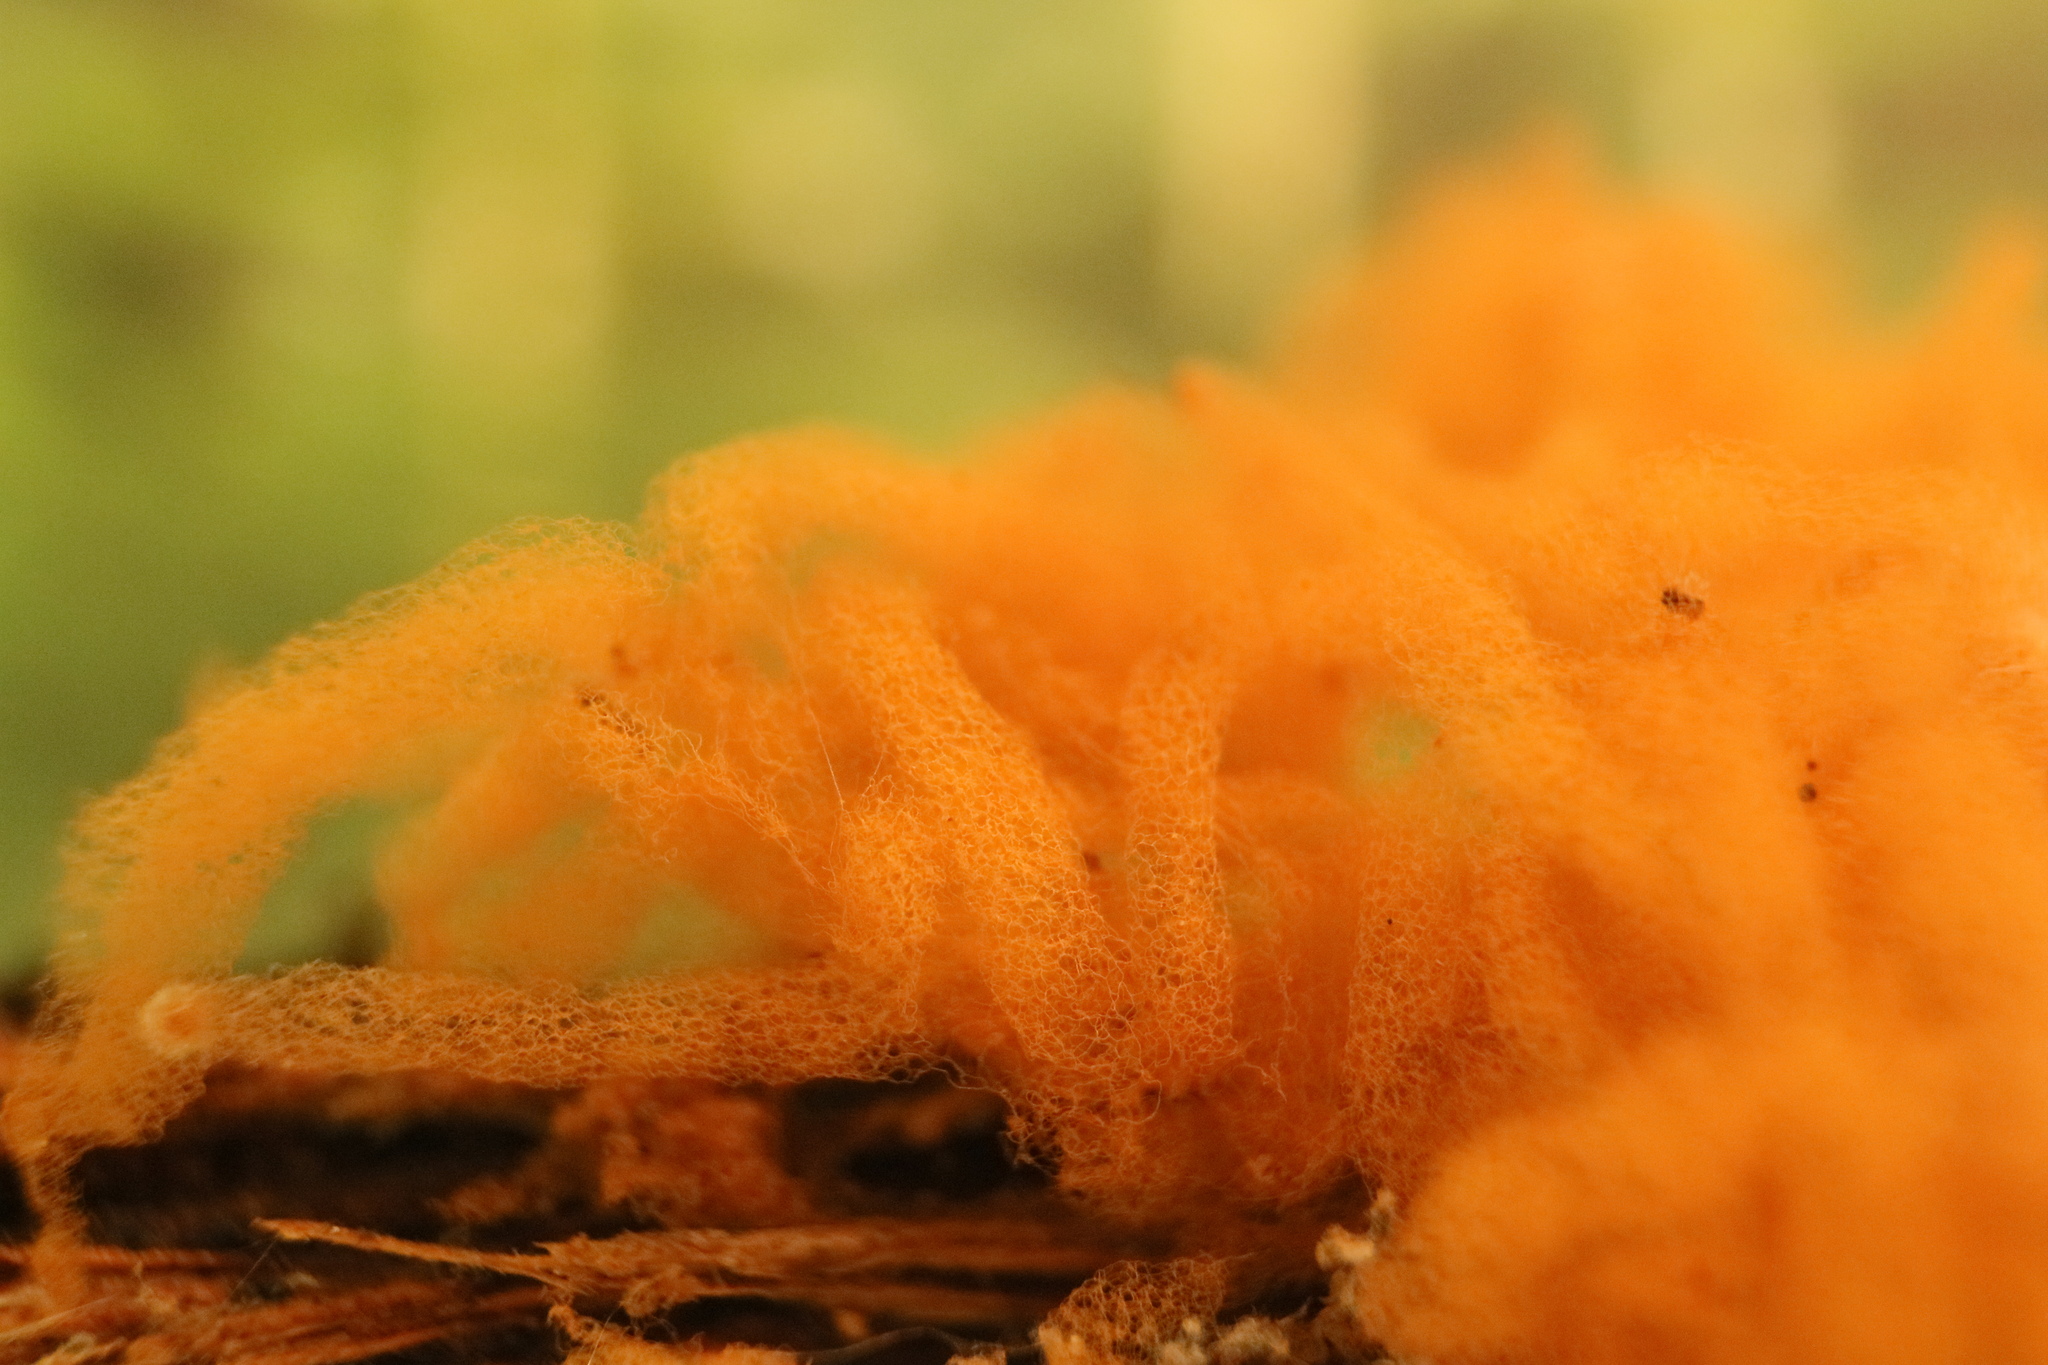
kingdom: Protozoa
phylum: Mycetozoa
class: Myxomycetes
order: Trichiales
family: Arcyriaceae
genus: Arcyria
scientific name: Arcyria obvelata
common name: Yellow carnival candy slime
